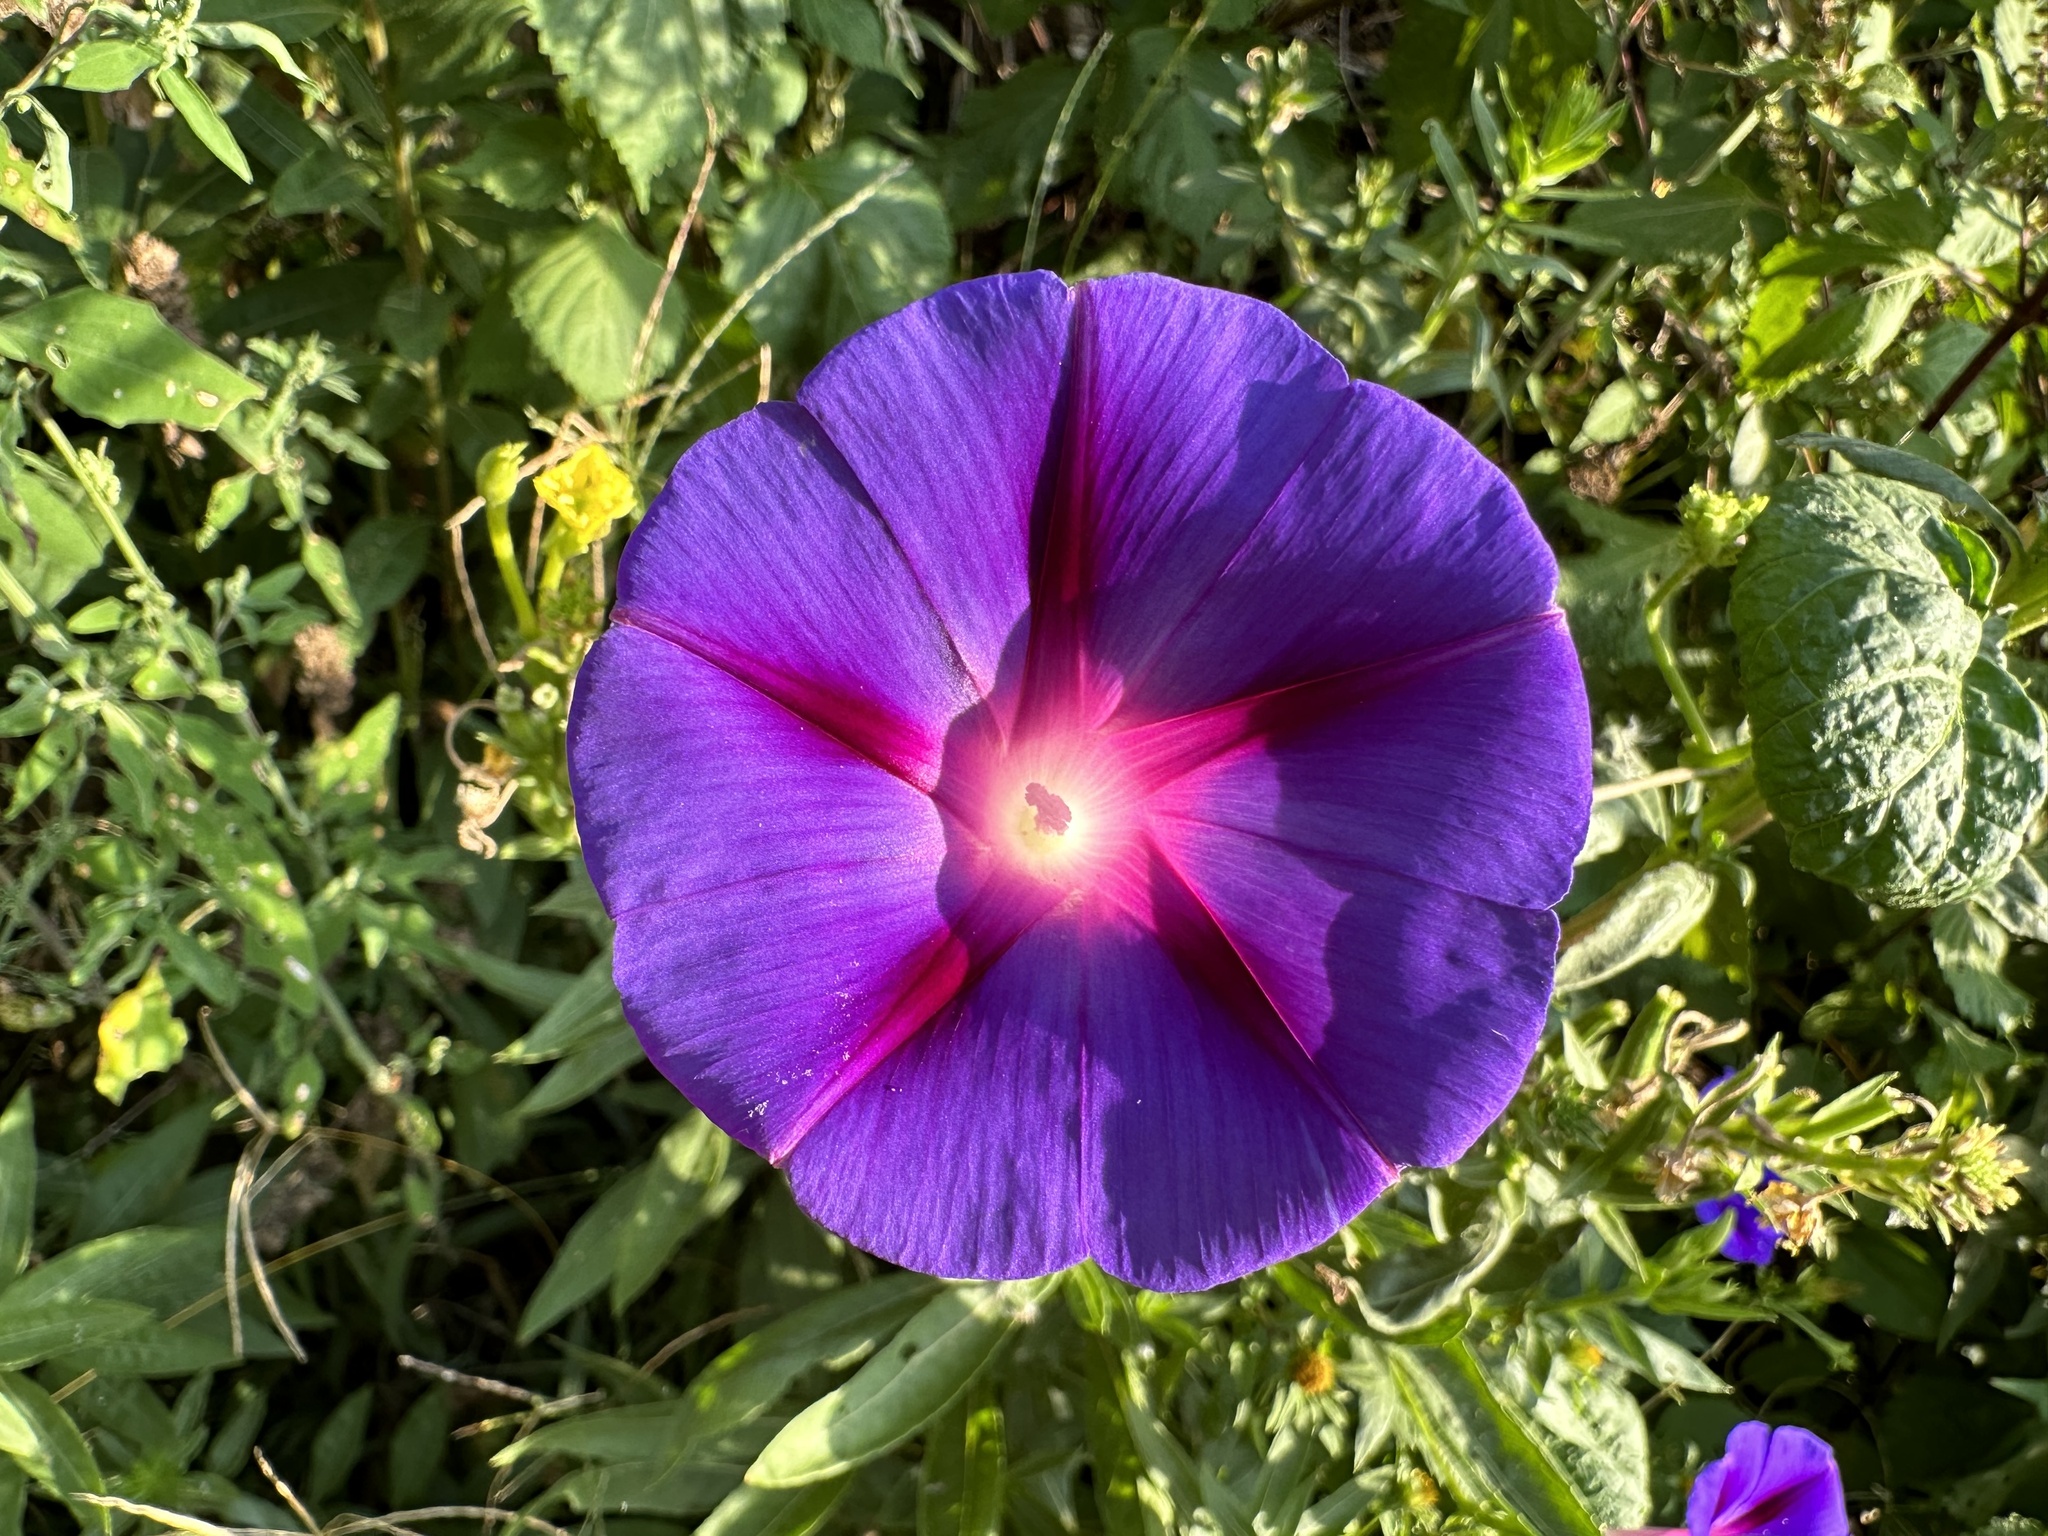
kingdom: Plantae
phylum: Tracheophyta
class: Magnoliopsida
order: Solanales
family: Convolvulaceae
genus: Ipomoea
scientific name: Ipomoea purpurea
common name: Common morning-glory
